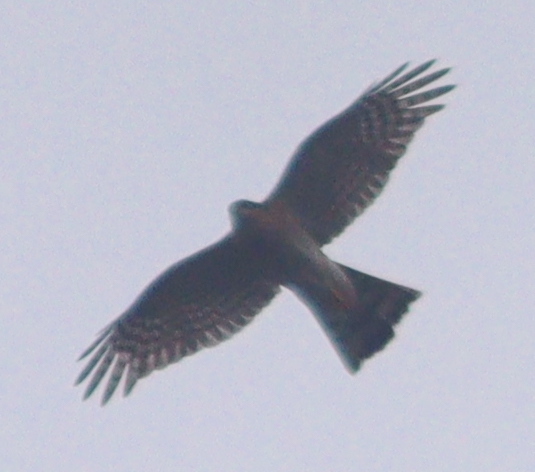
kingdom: Animalia
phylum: Chordata
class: Aves
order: Accipitriformes
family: Accipitridae
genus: Accipiter
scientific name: Accipiter nisus
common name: Eurasian sparrowhawk
